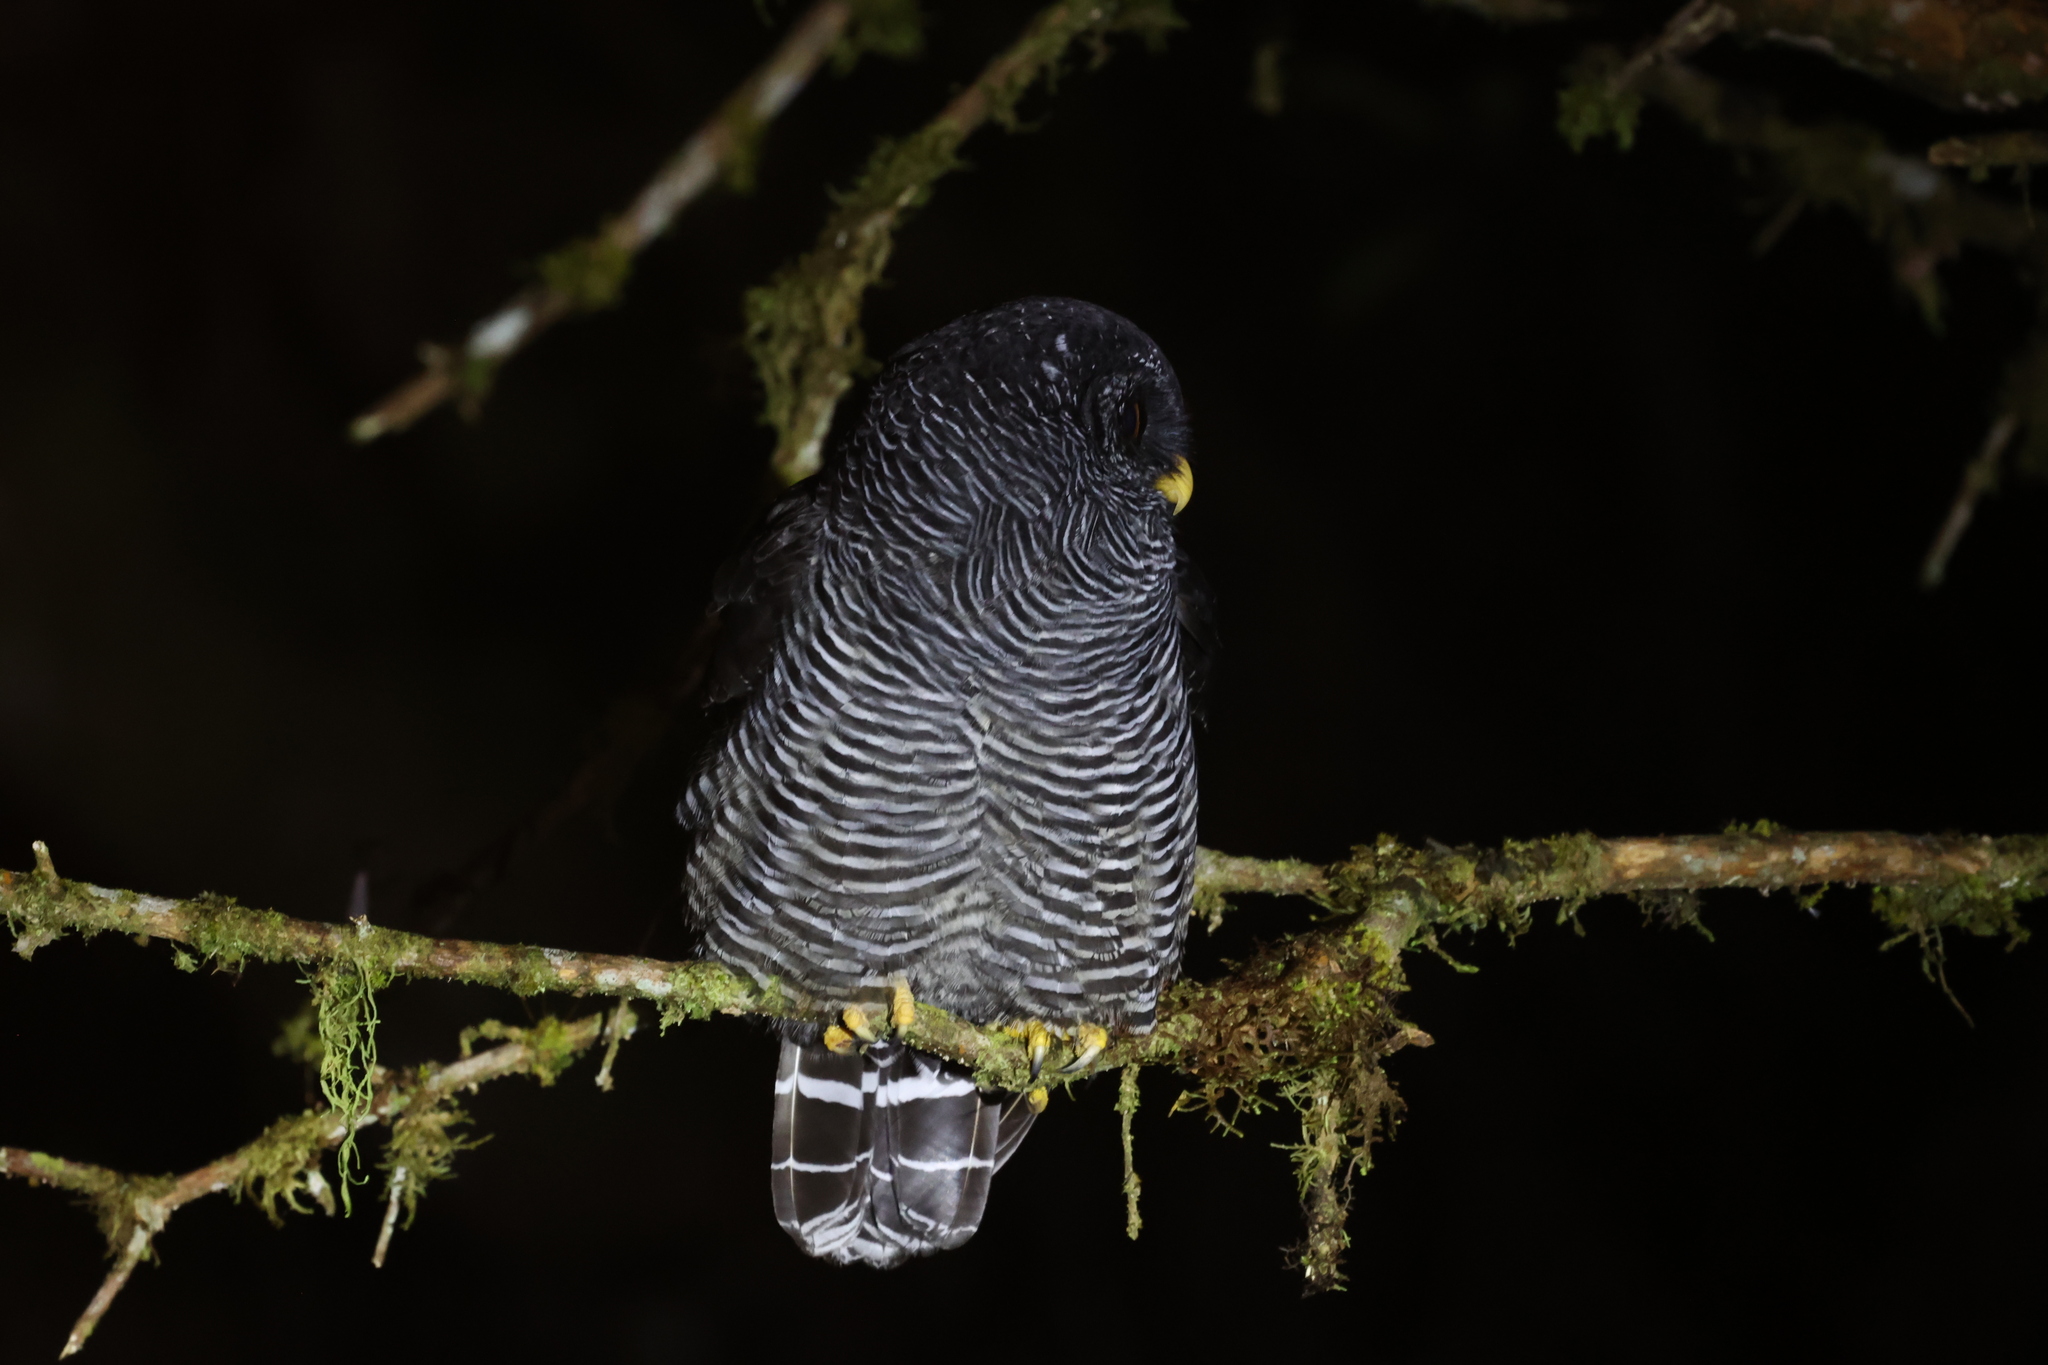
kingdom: Animalia
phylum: Chordata
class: Aves
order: Strigiformes
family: Strigidae
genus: Strix
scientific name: Strix huhula
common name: Black-banded owl
